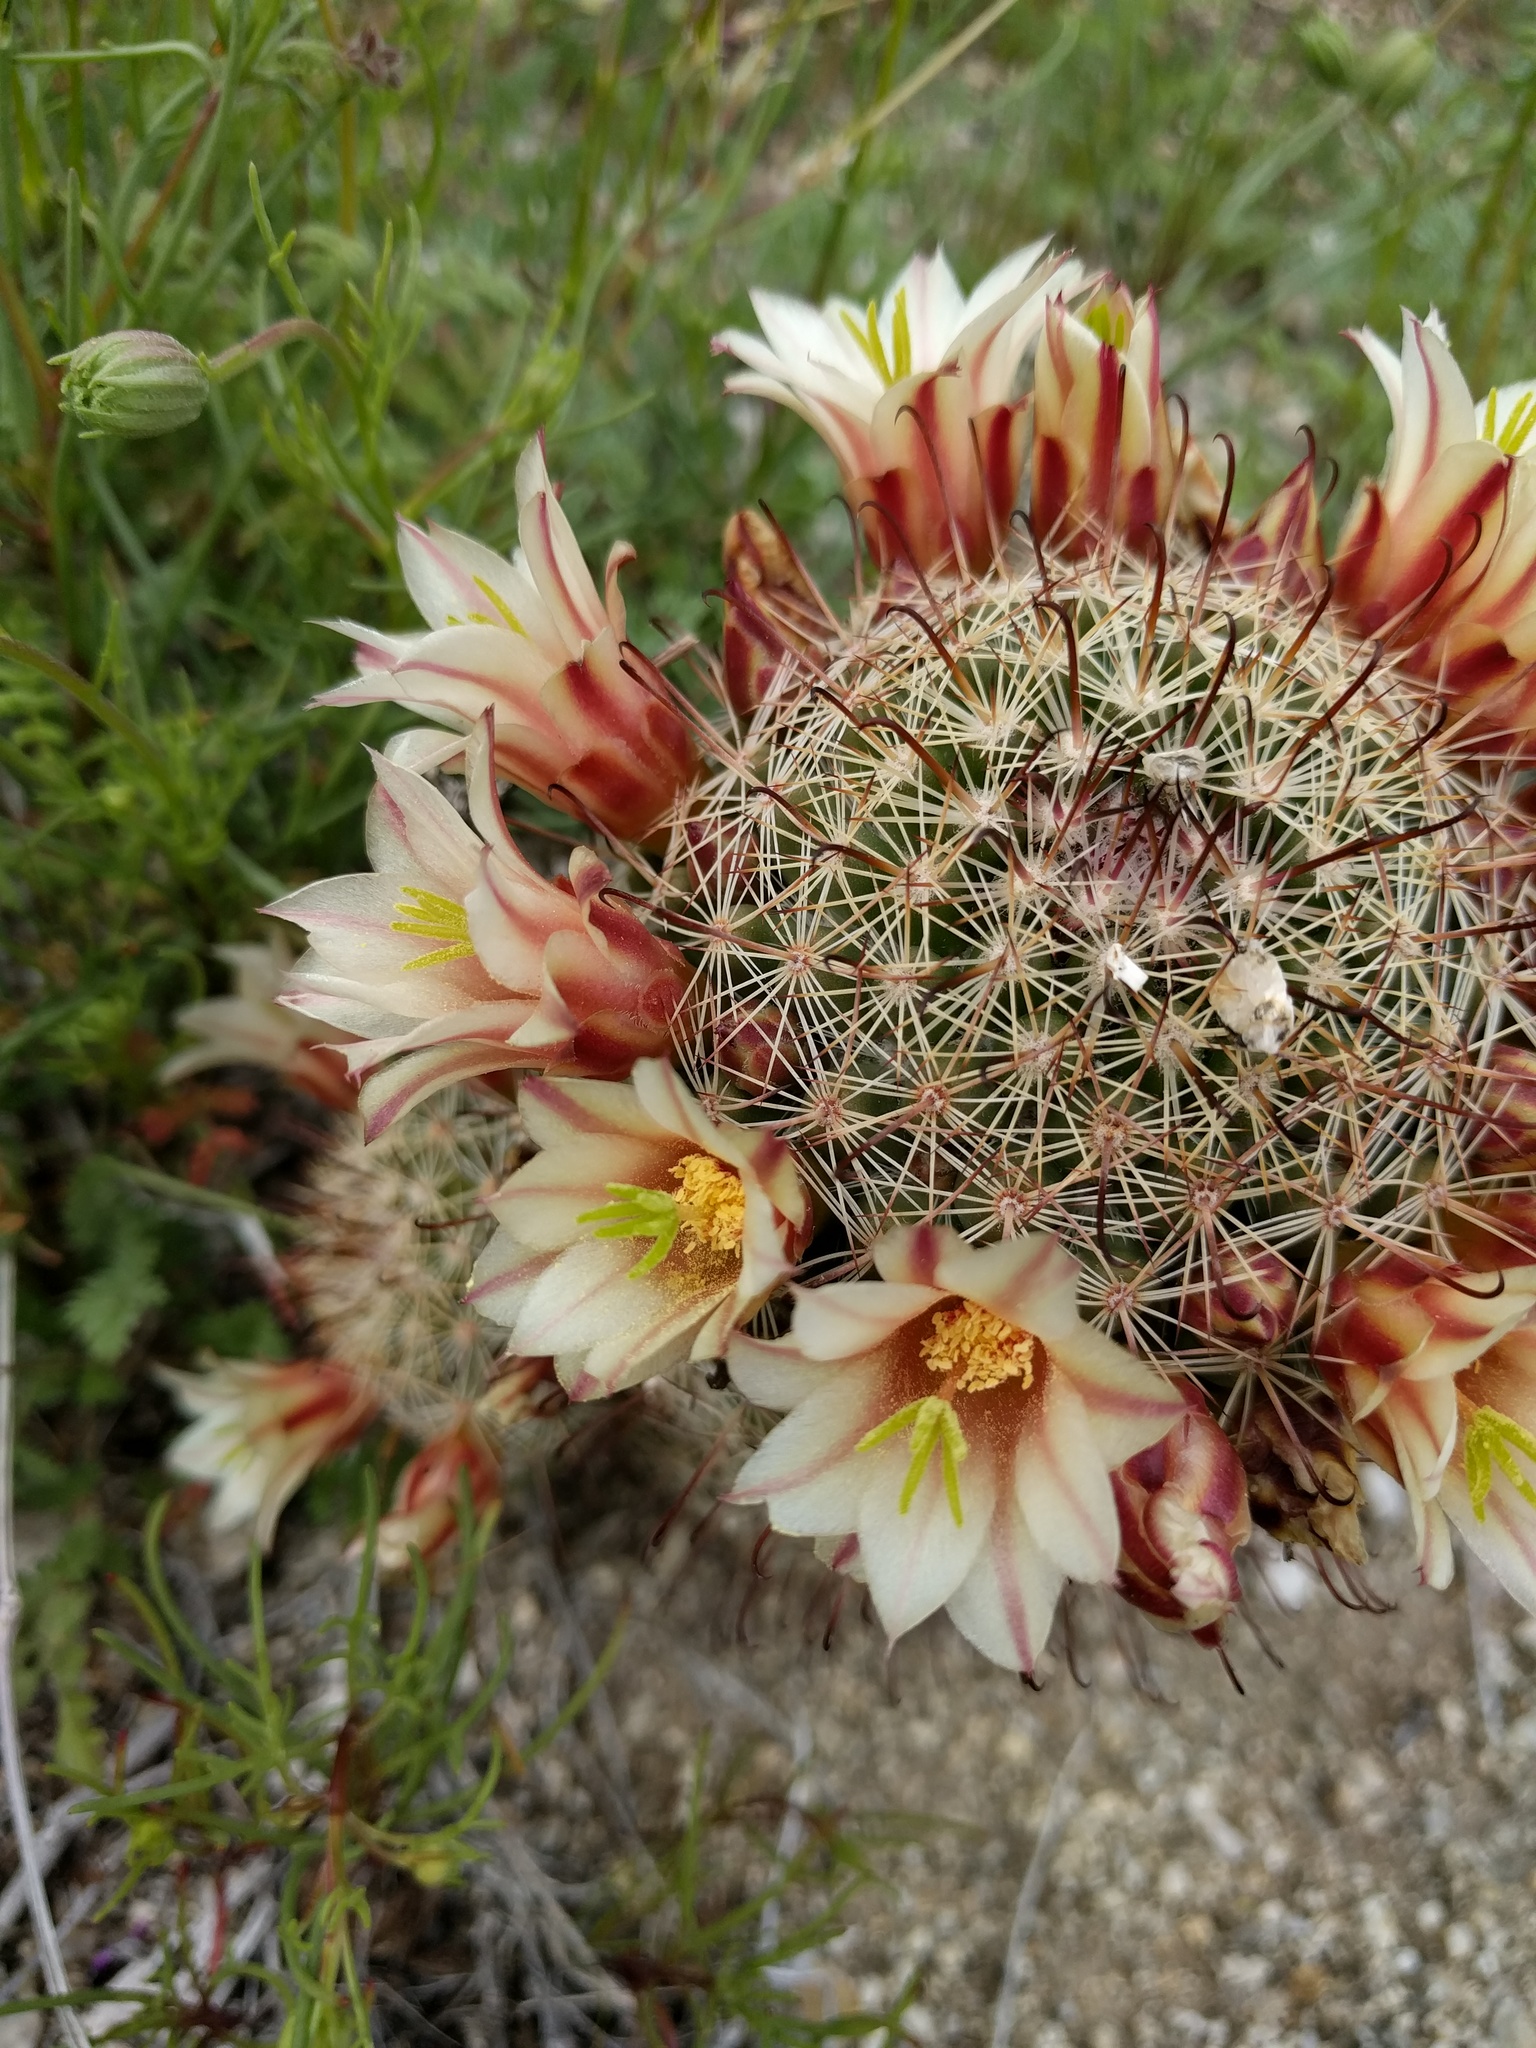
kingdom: Plantae
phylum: Tracheophyta
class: Magnoliopsida
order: Caryophyllales
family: Cactaceae
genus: Cochemiea
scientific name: Cochemiea dioica
